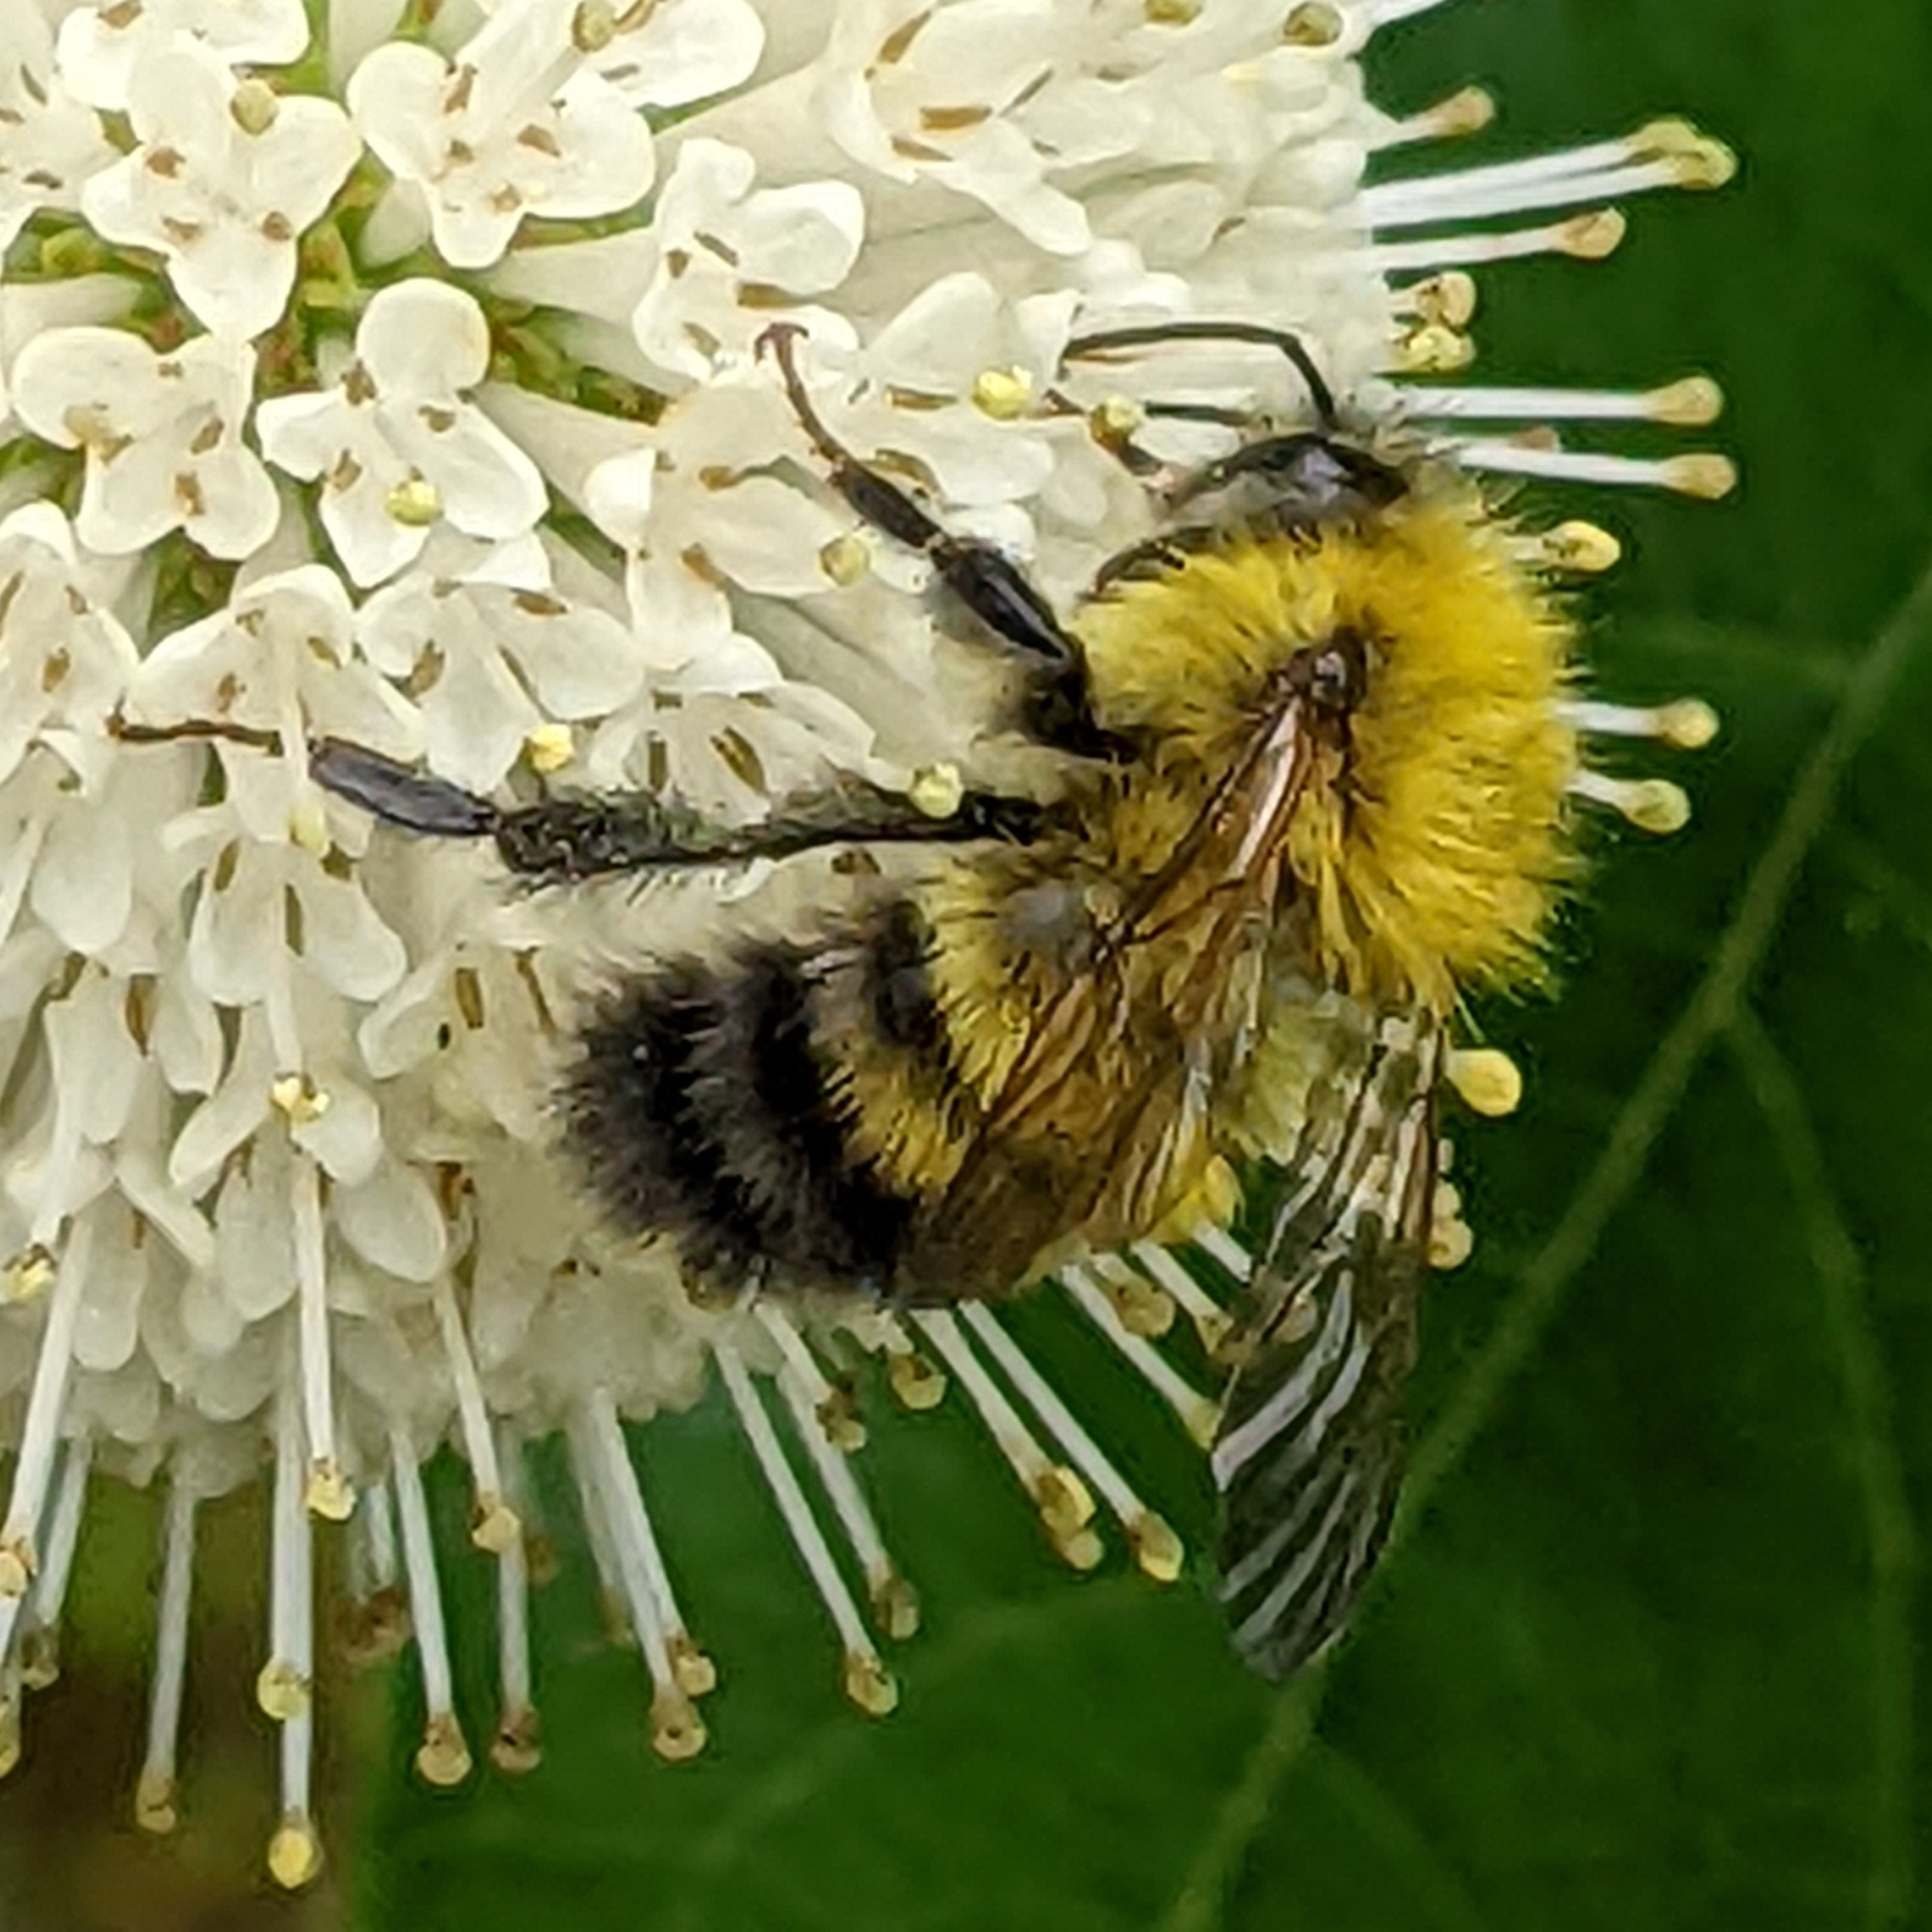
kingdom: Animalia
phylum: Arthropoda
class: Insecta
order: Hymenoptera
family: Apidae
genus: Bombus
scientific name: Bombus perplexus
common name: Confusing bumble bee
